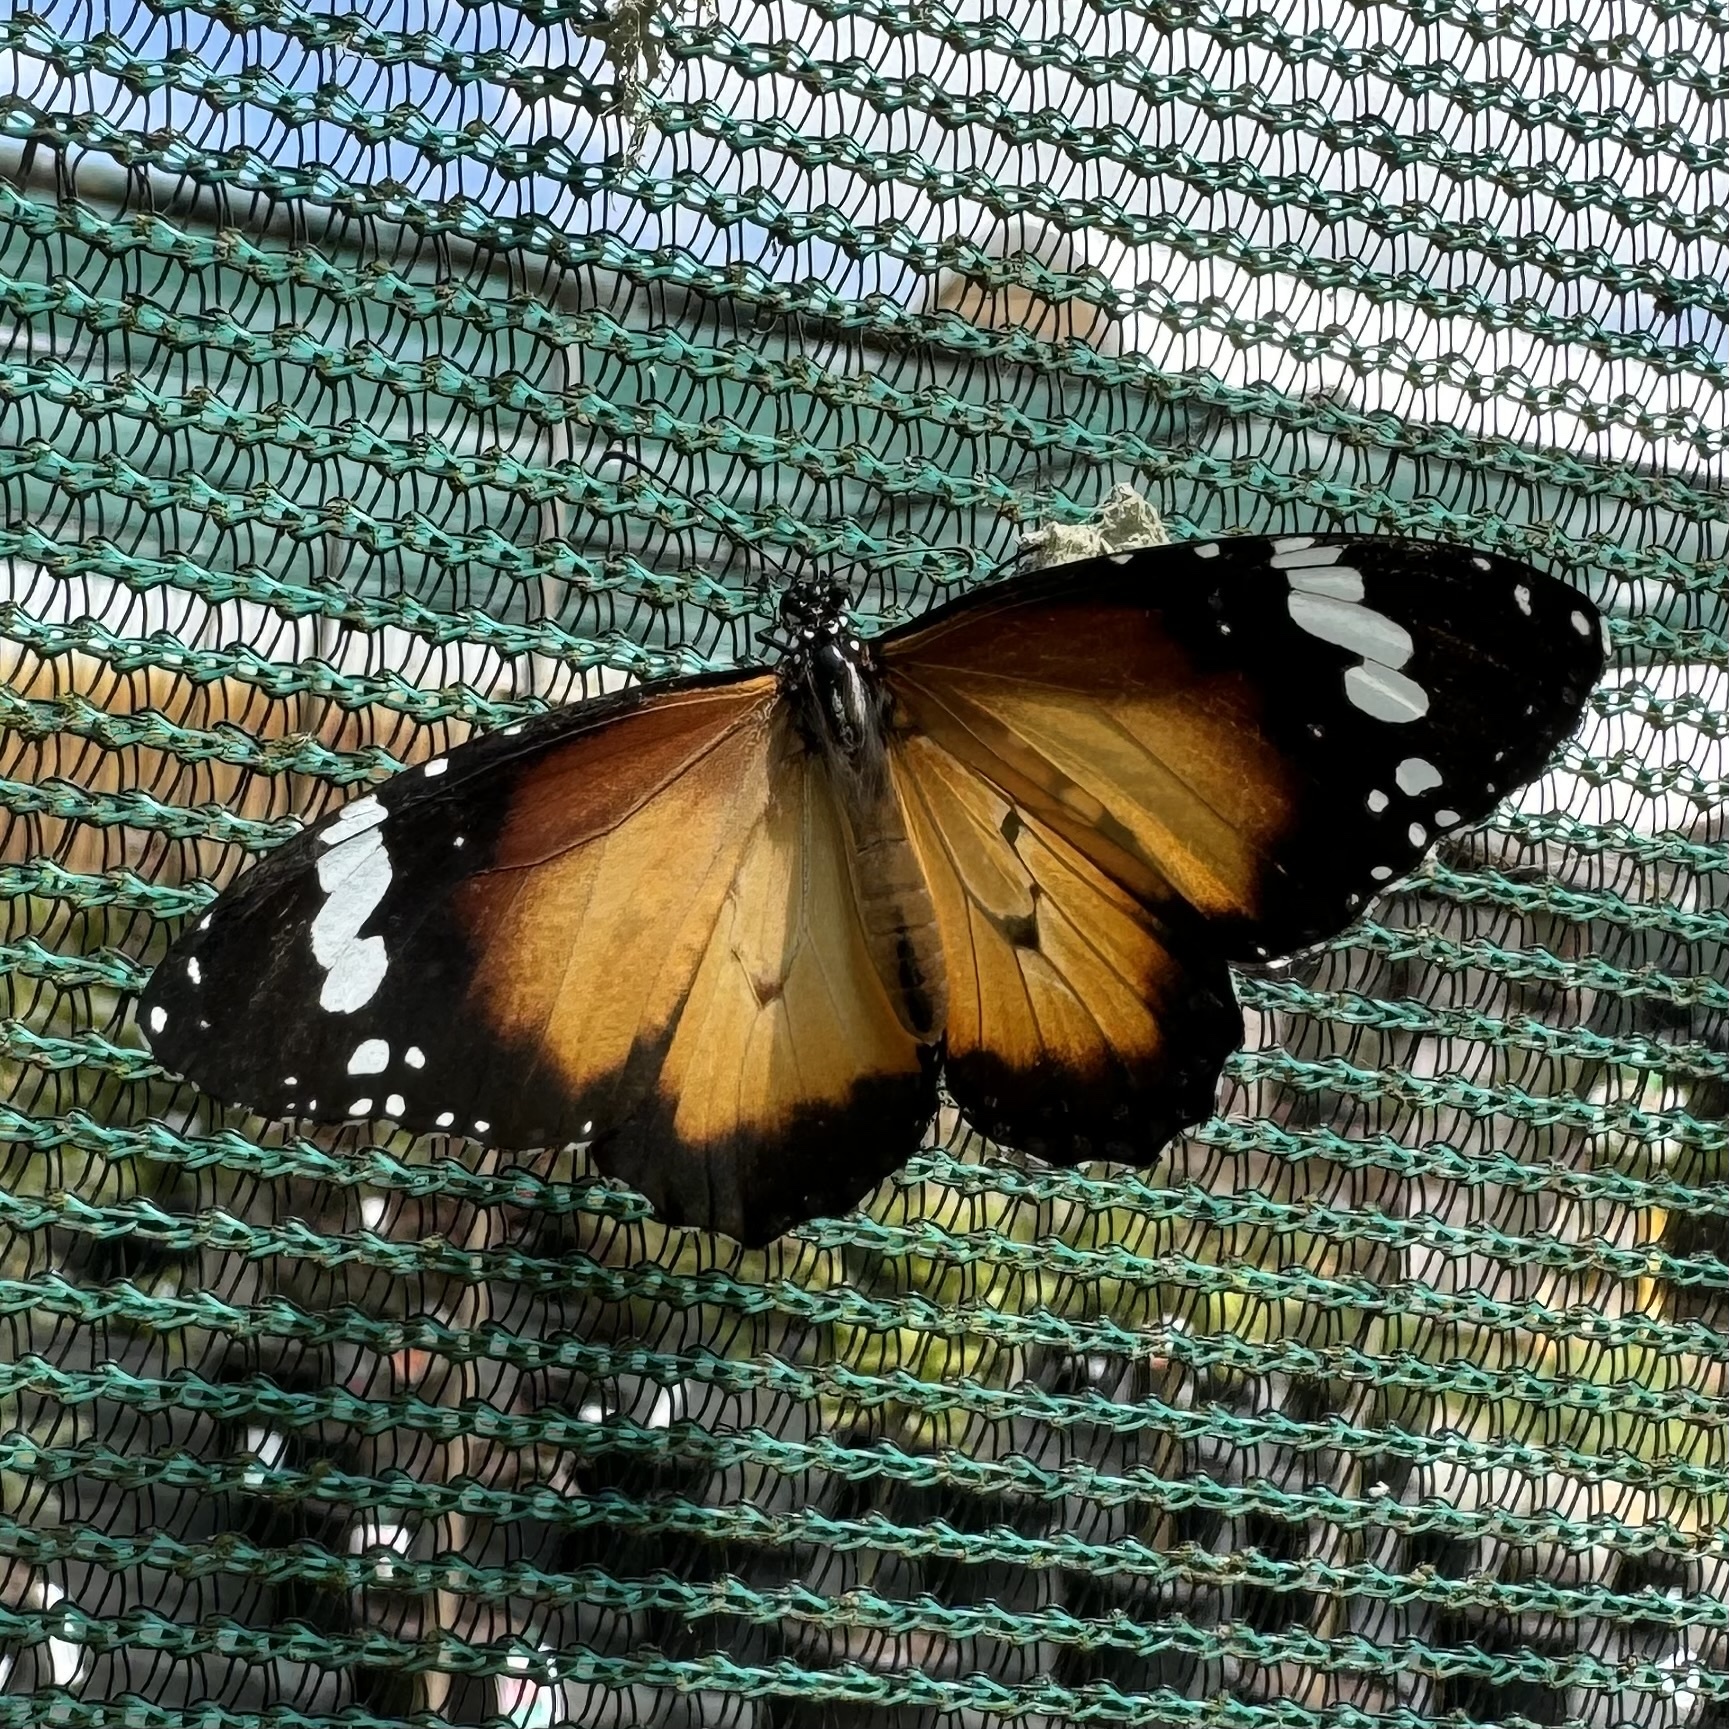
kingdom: Animalia
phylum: Arthropoda
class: Insecta
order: Lepidoptera
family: Nymphalidae
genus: Danaus
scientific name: Danaus chrysippus
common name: Plain tiger
